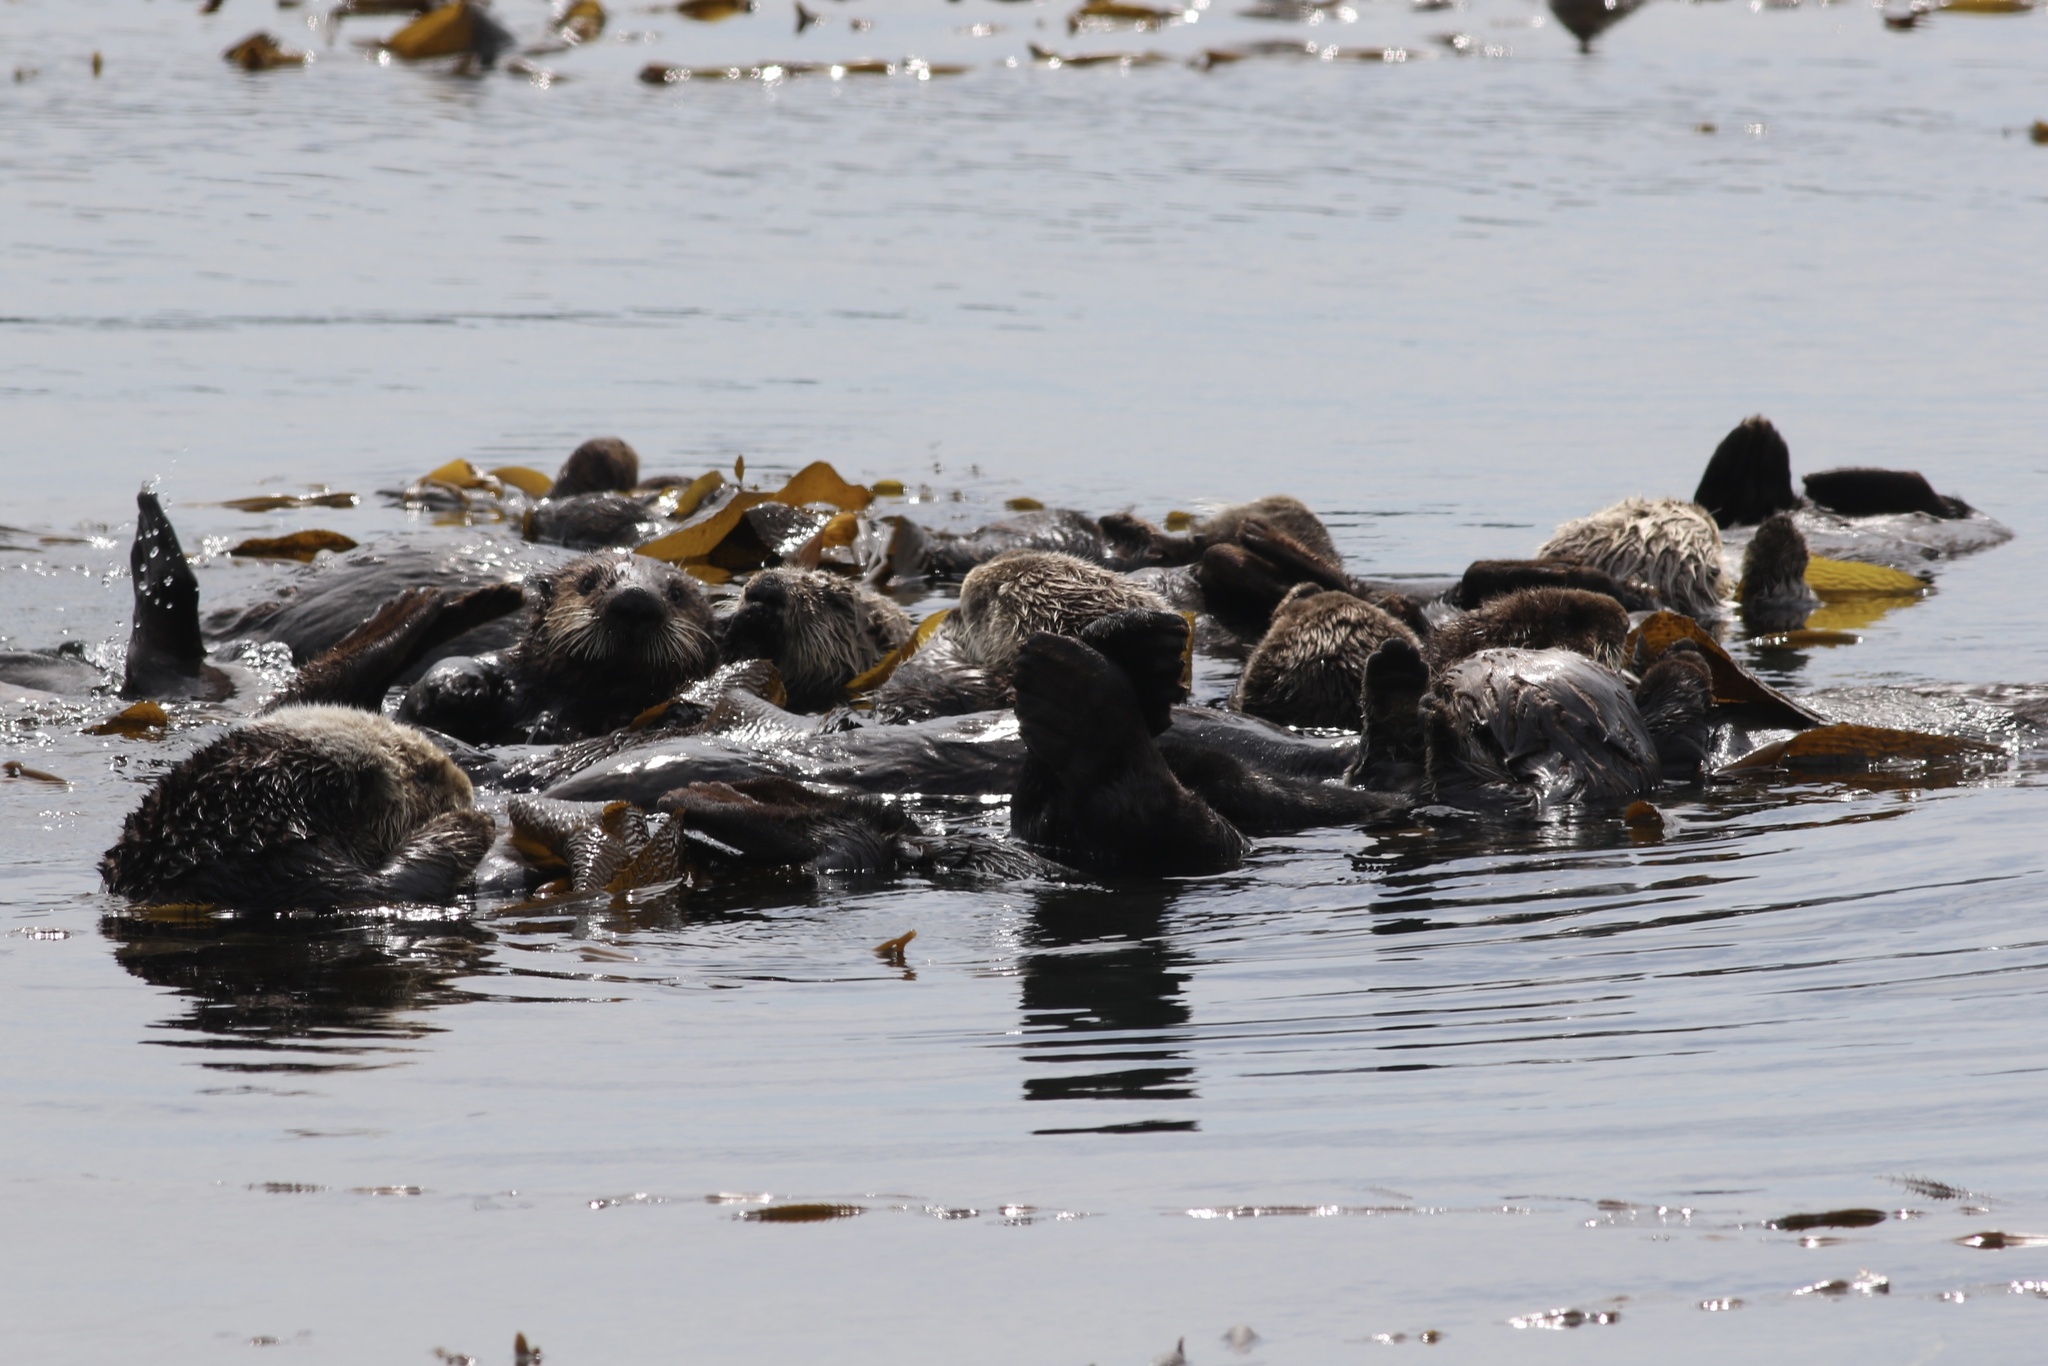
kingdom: Animalia
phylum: Chordata
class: Mammalia
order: Carnivora
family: Mustelidae
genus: Enhydra
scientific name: Enhydra lutris
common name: Sea otter
